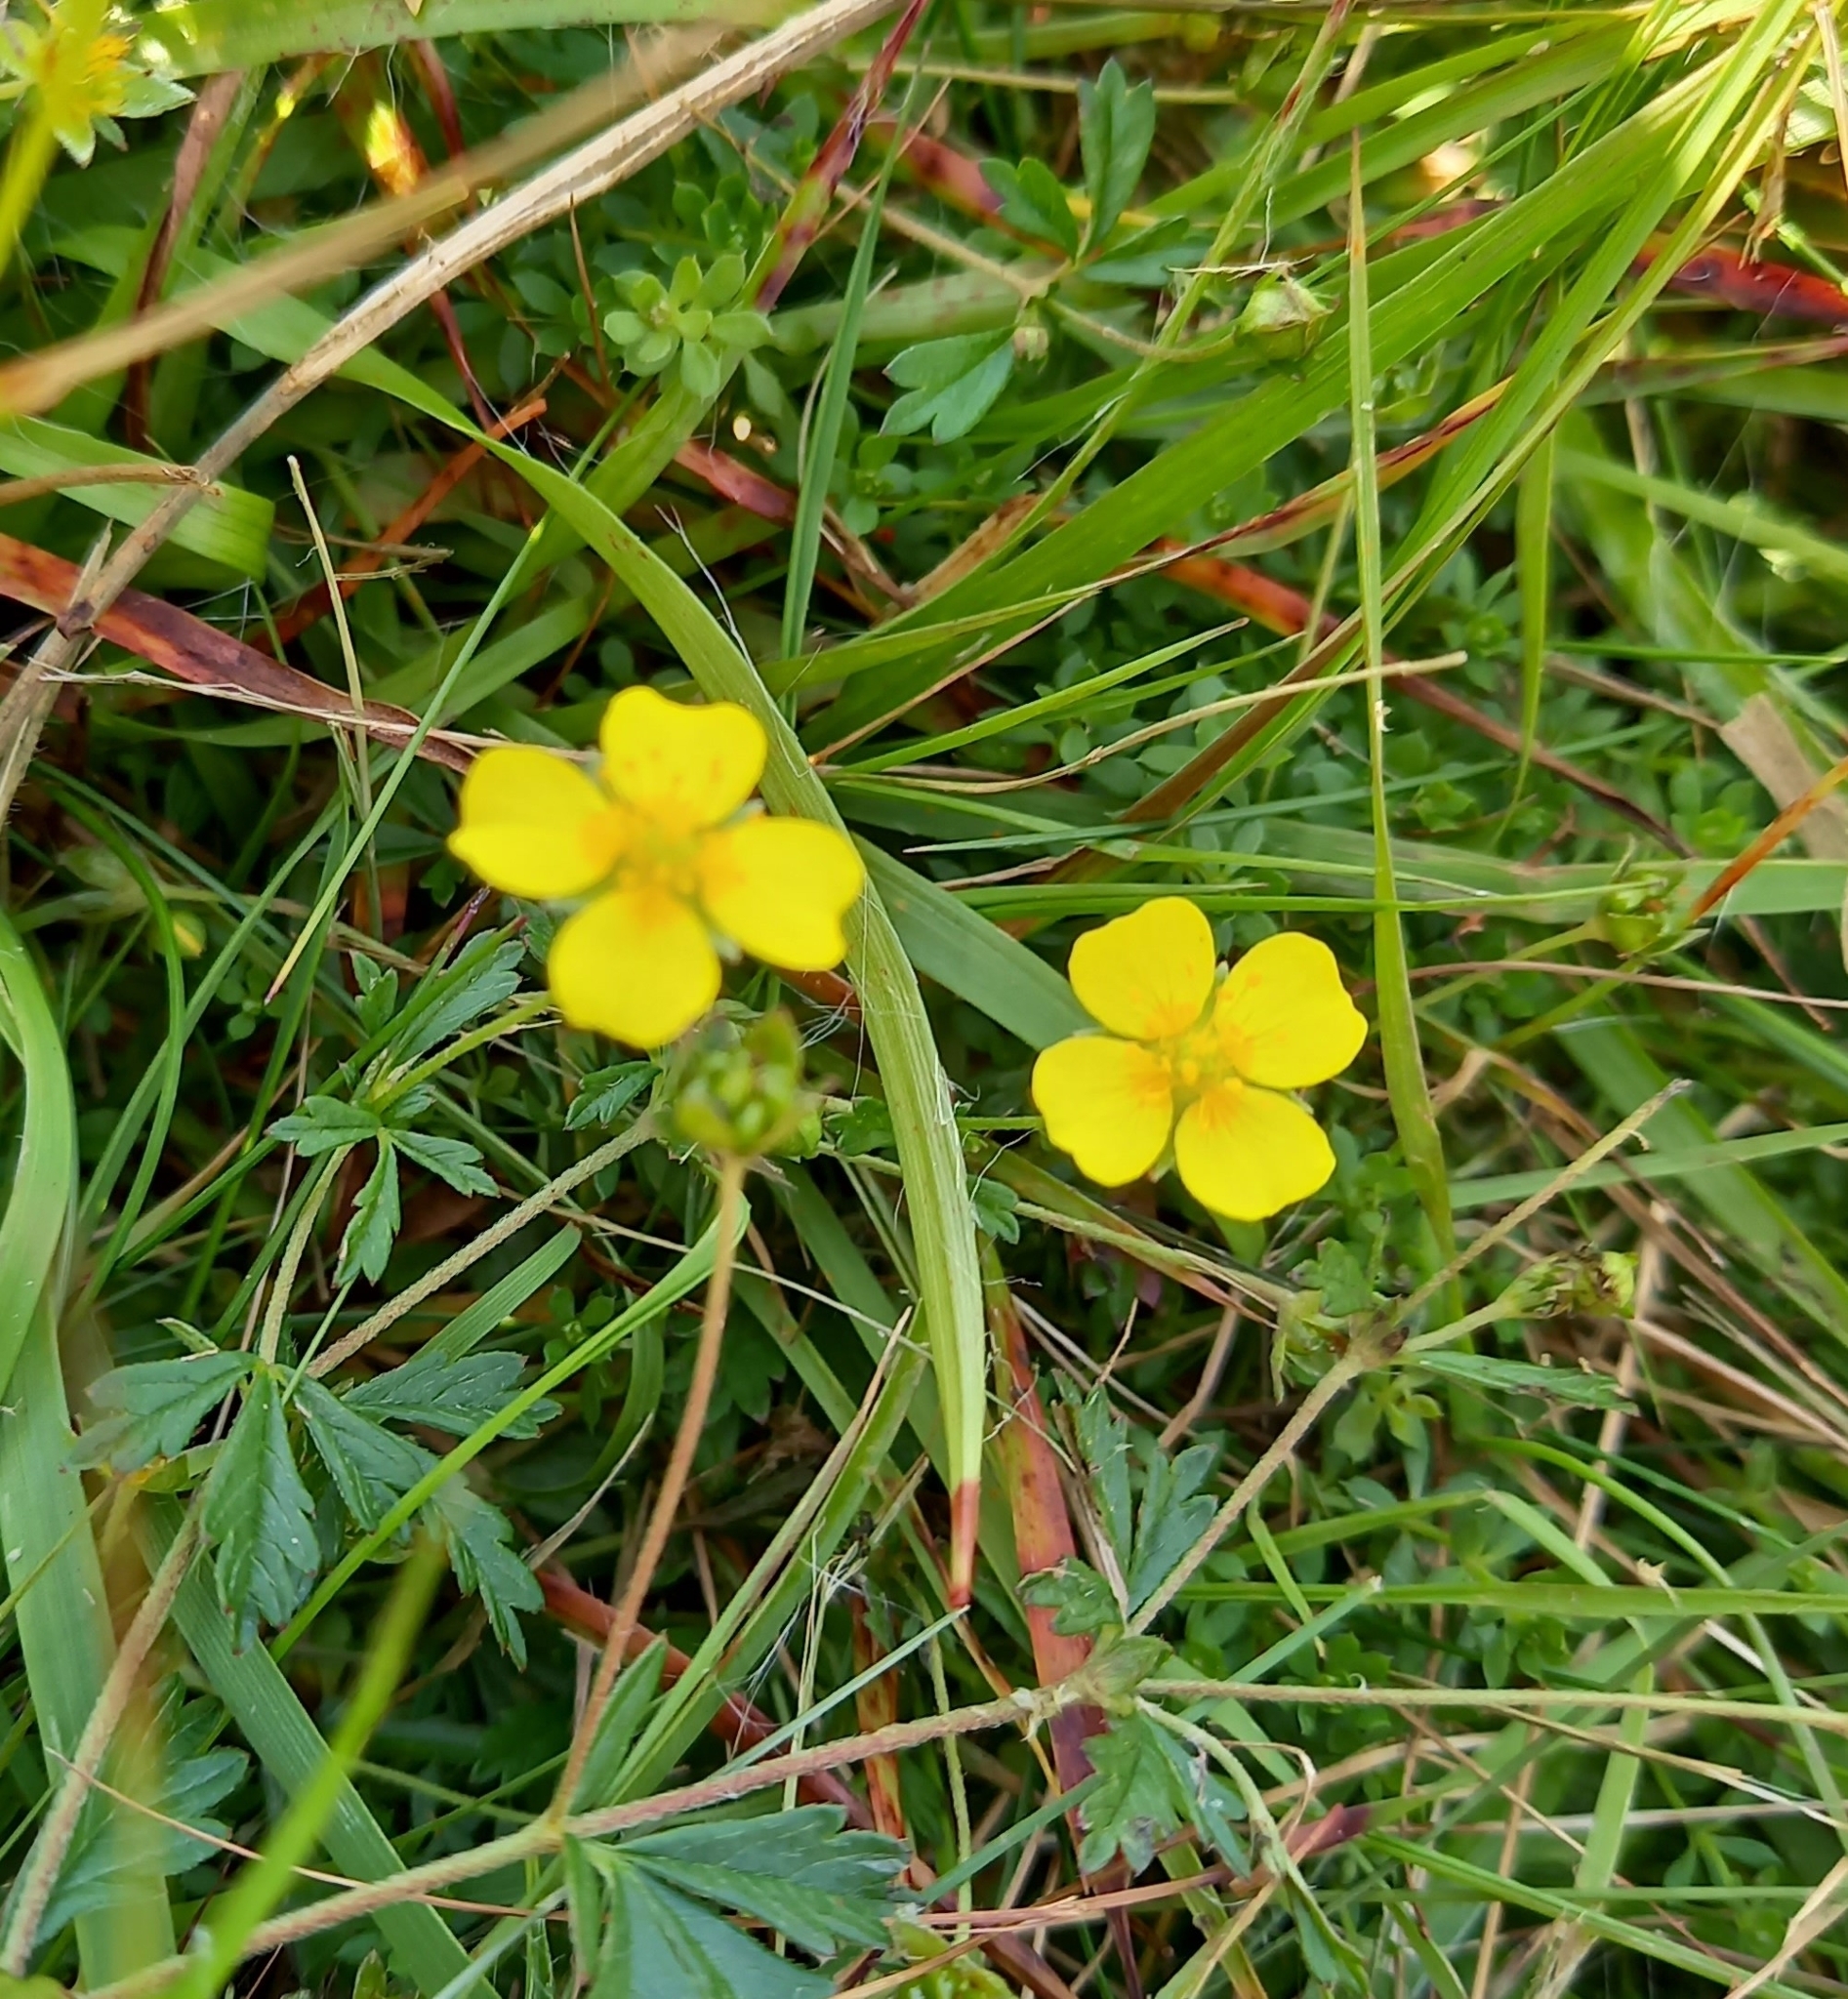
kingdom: Plantae
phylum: Tracheophyta
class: Magnoliopsida
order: Rosales
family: Rosaceae
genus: Potentilla
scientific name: Potentilla erecta
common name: Tormentil
